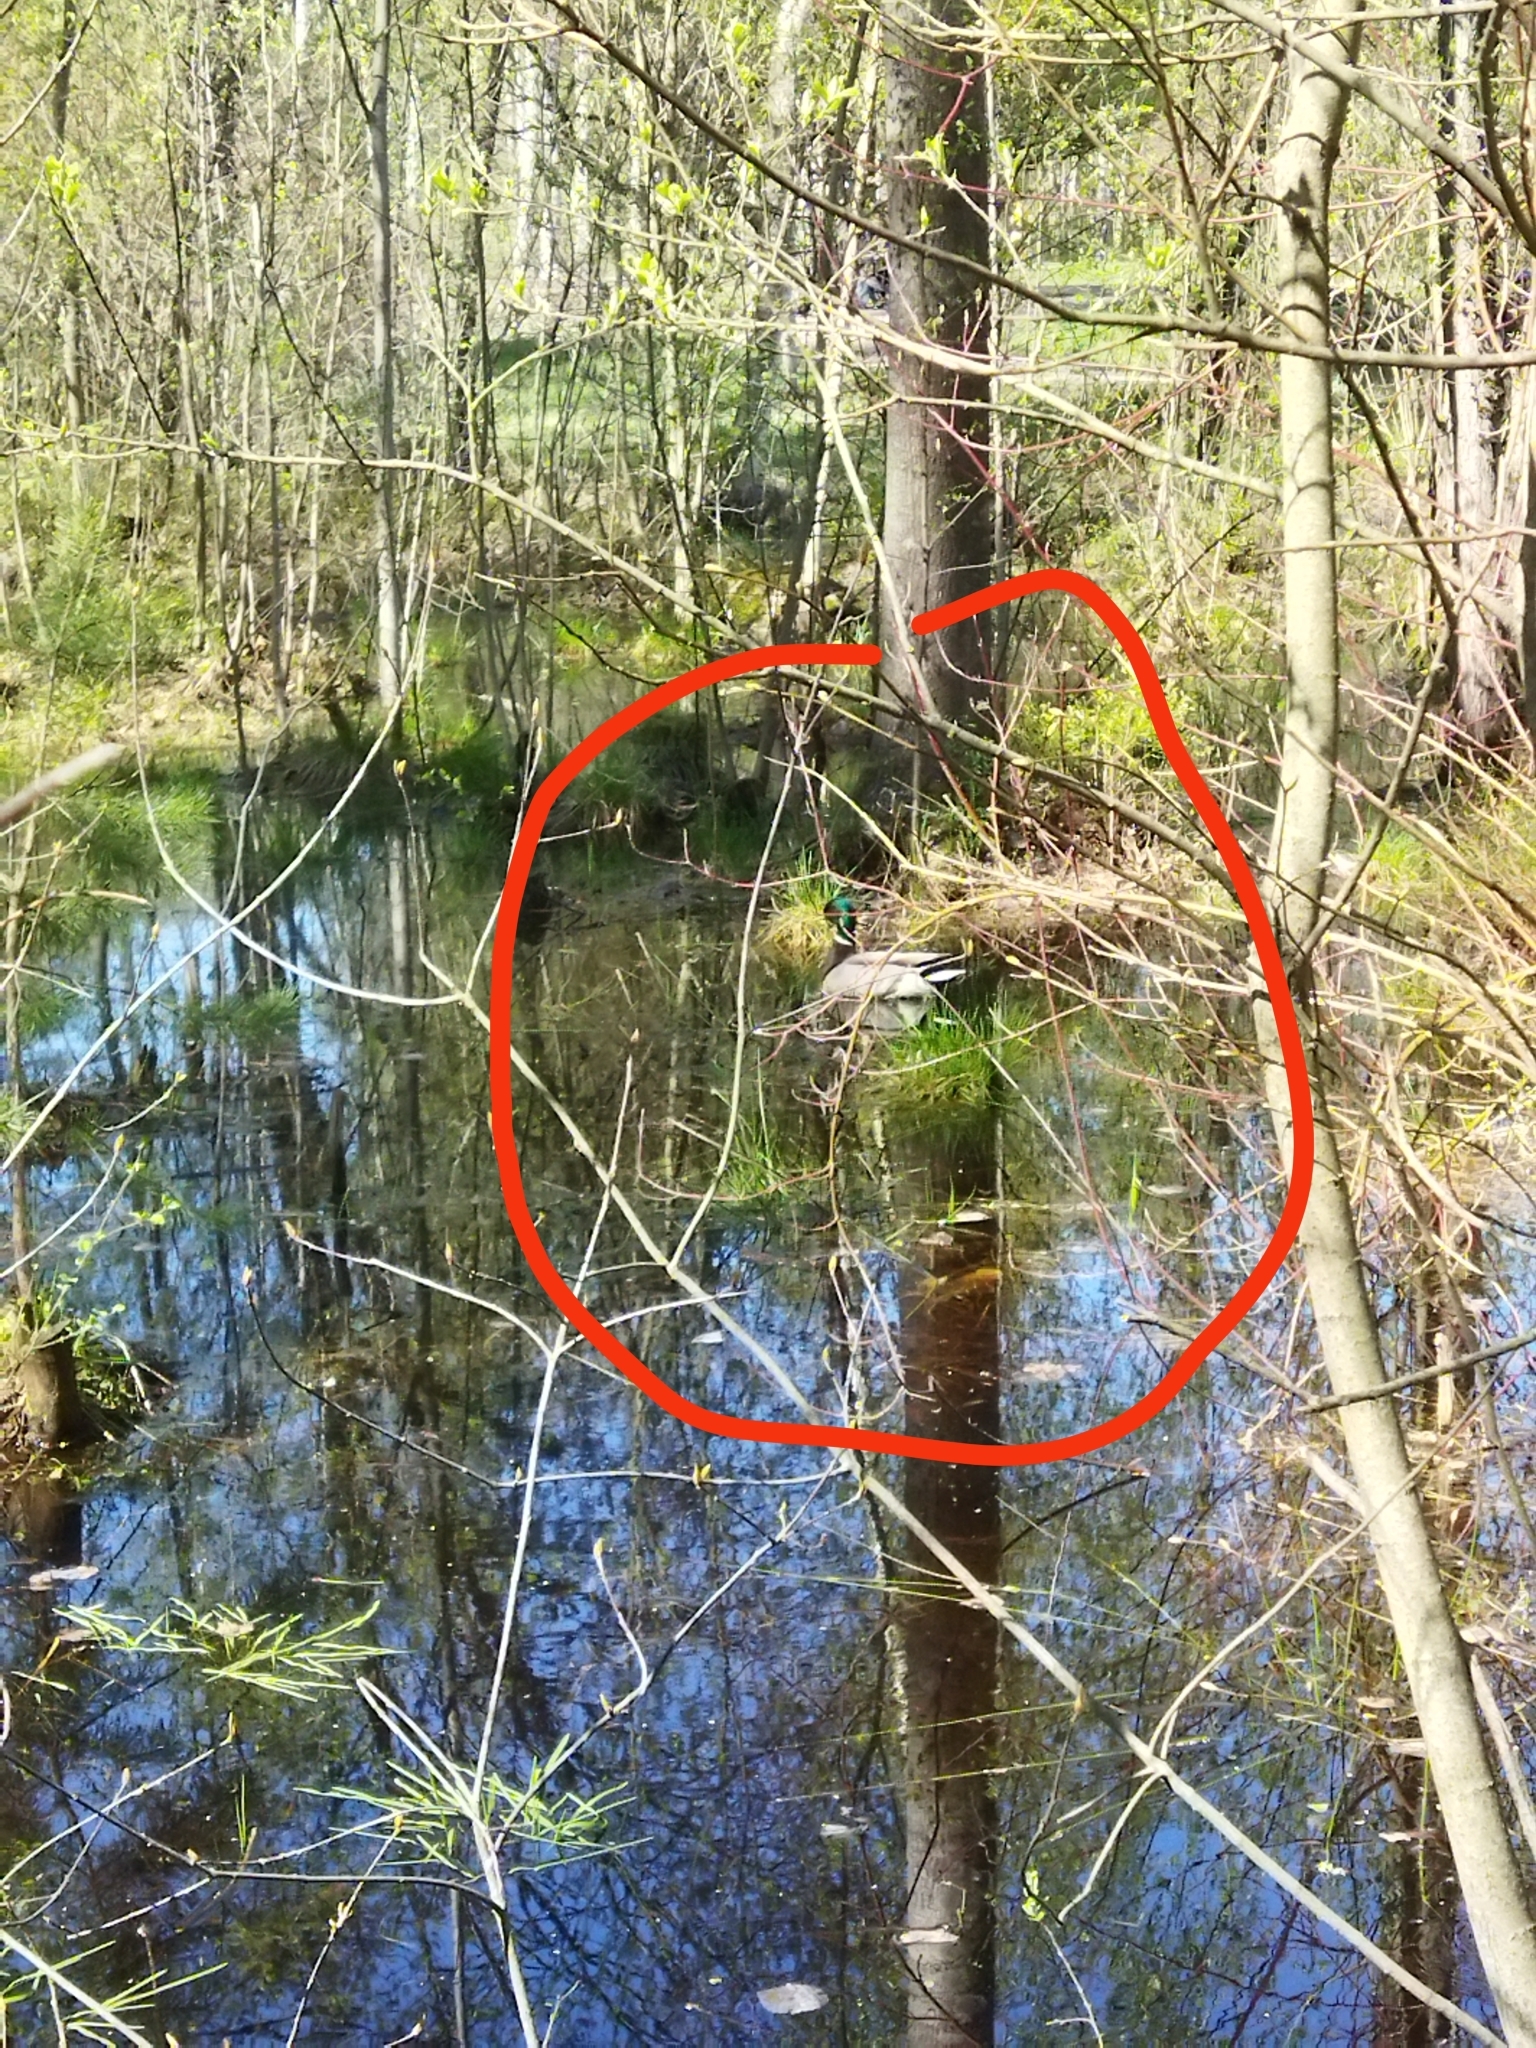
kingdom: Animalia
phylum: Chordata
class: Aves
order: Anseriformes
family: Anatidae
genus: Anas
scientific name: Anas platyrhynchos
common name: Mallard
